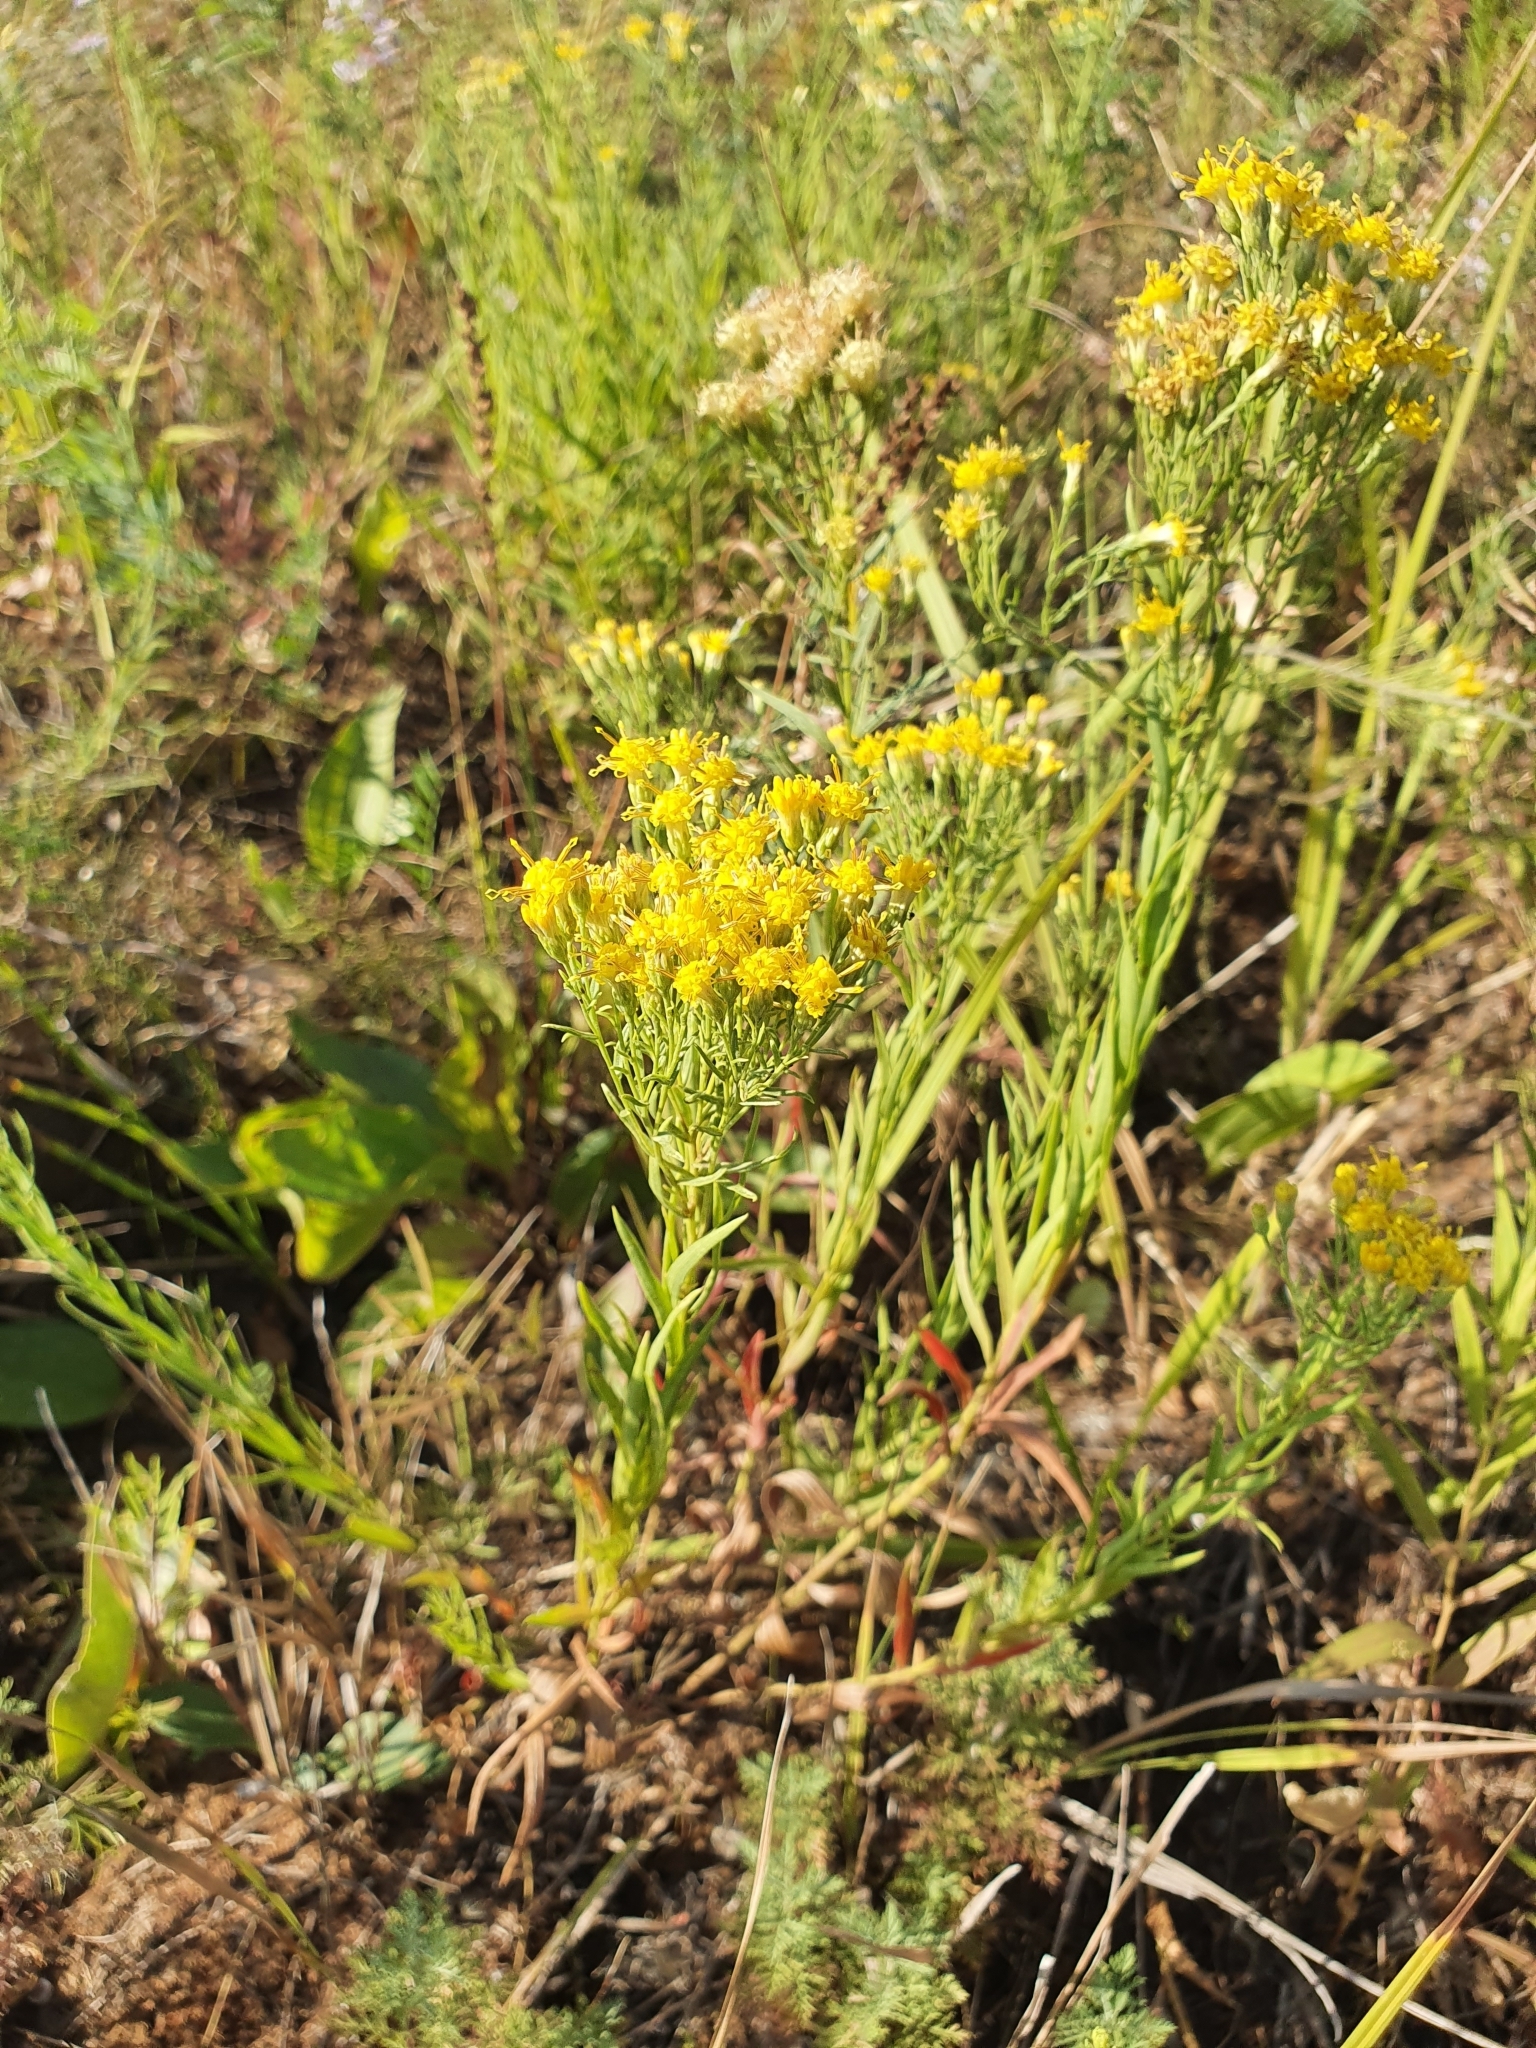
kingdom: Plantae
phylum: Tracheophyta
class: Magnoliopsida
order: Asterales
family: Asteraceae
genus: Galatella
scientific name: Galatella biflora
